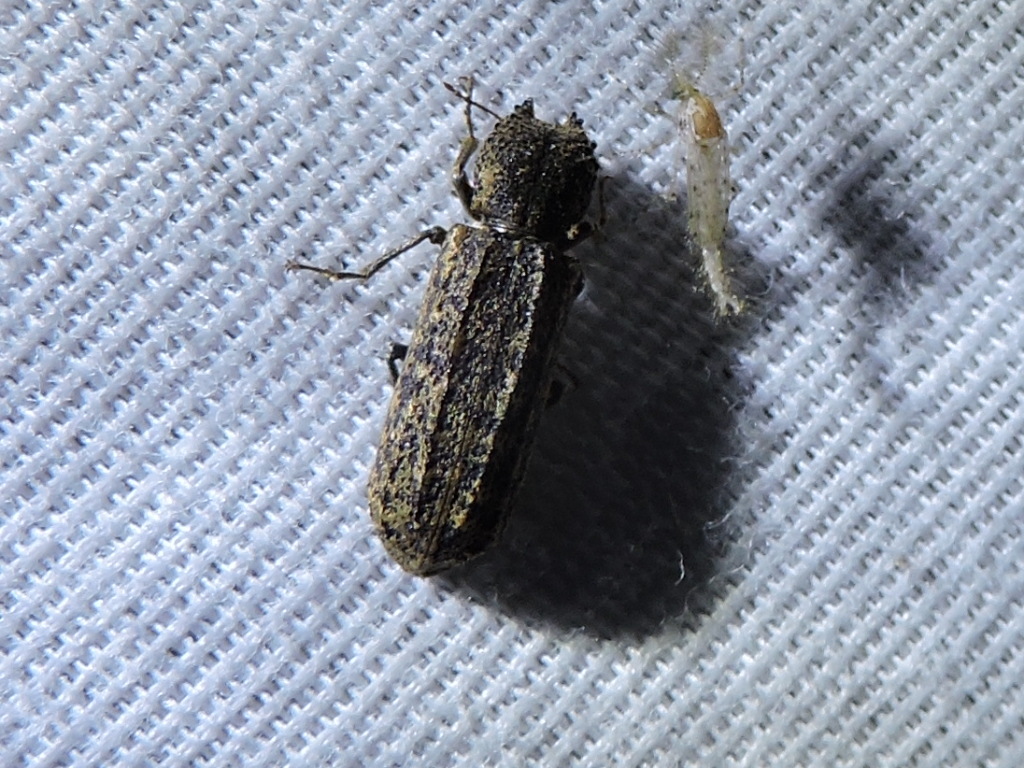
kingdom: Animalia
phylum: Arthropoda
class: Insecta
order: Coleoptera
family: Bostrichidae
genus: Lichenophanes
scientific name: Lichenophanes bicornis
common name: Two-horned powder-post beetle
